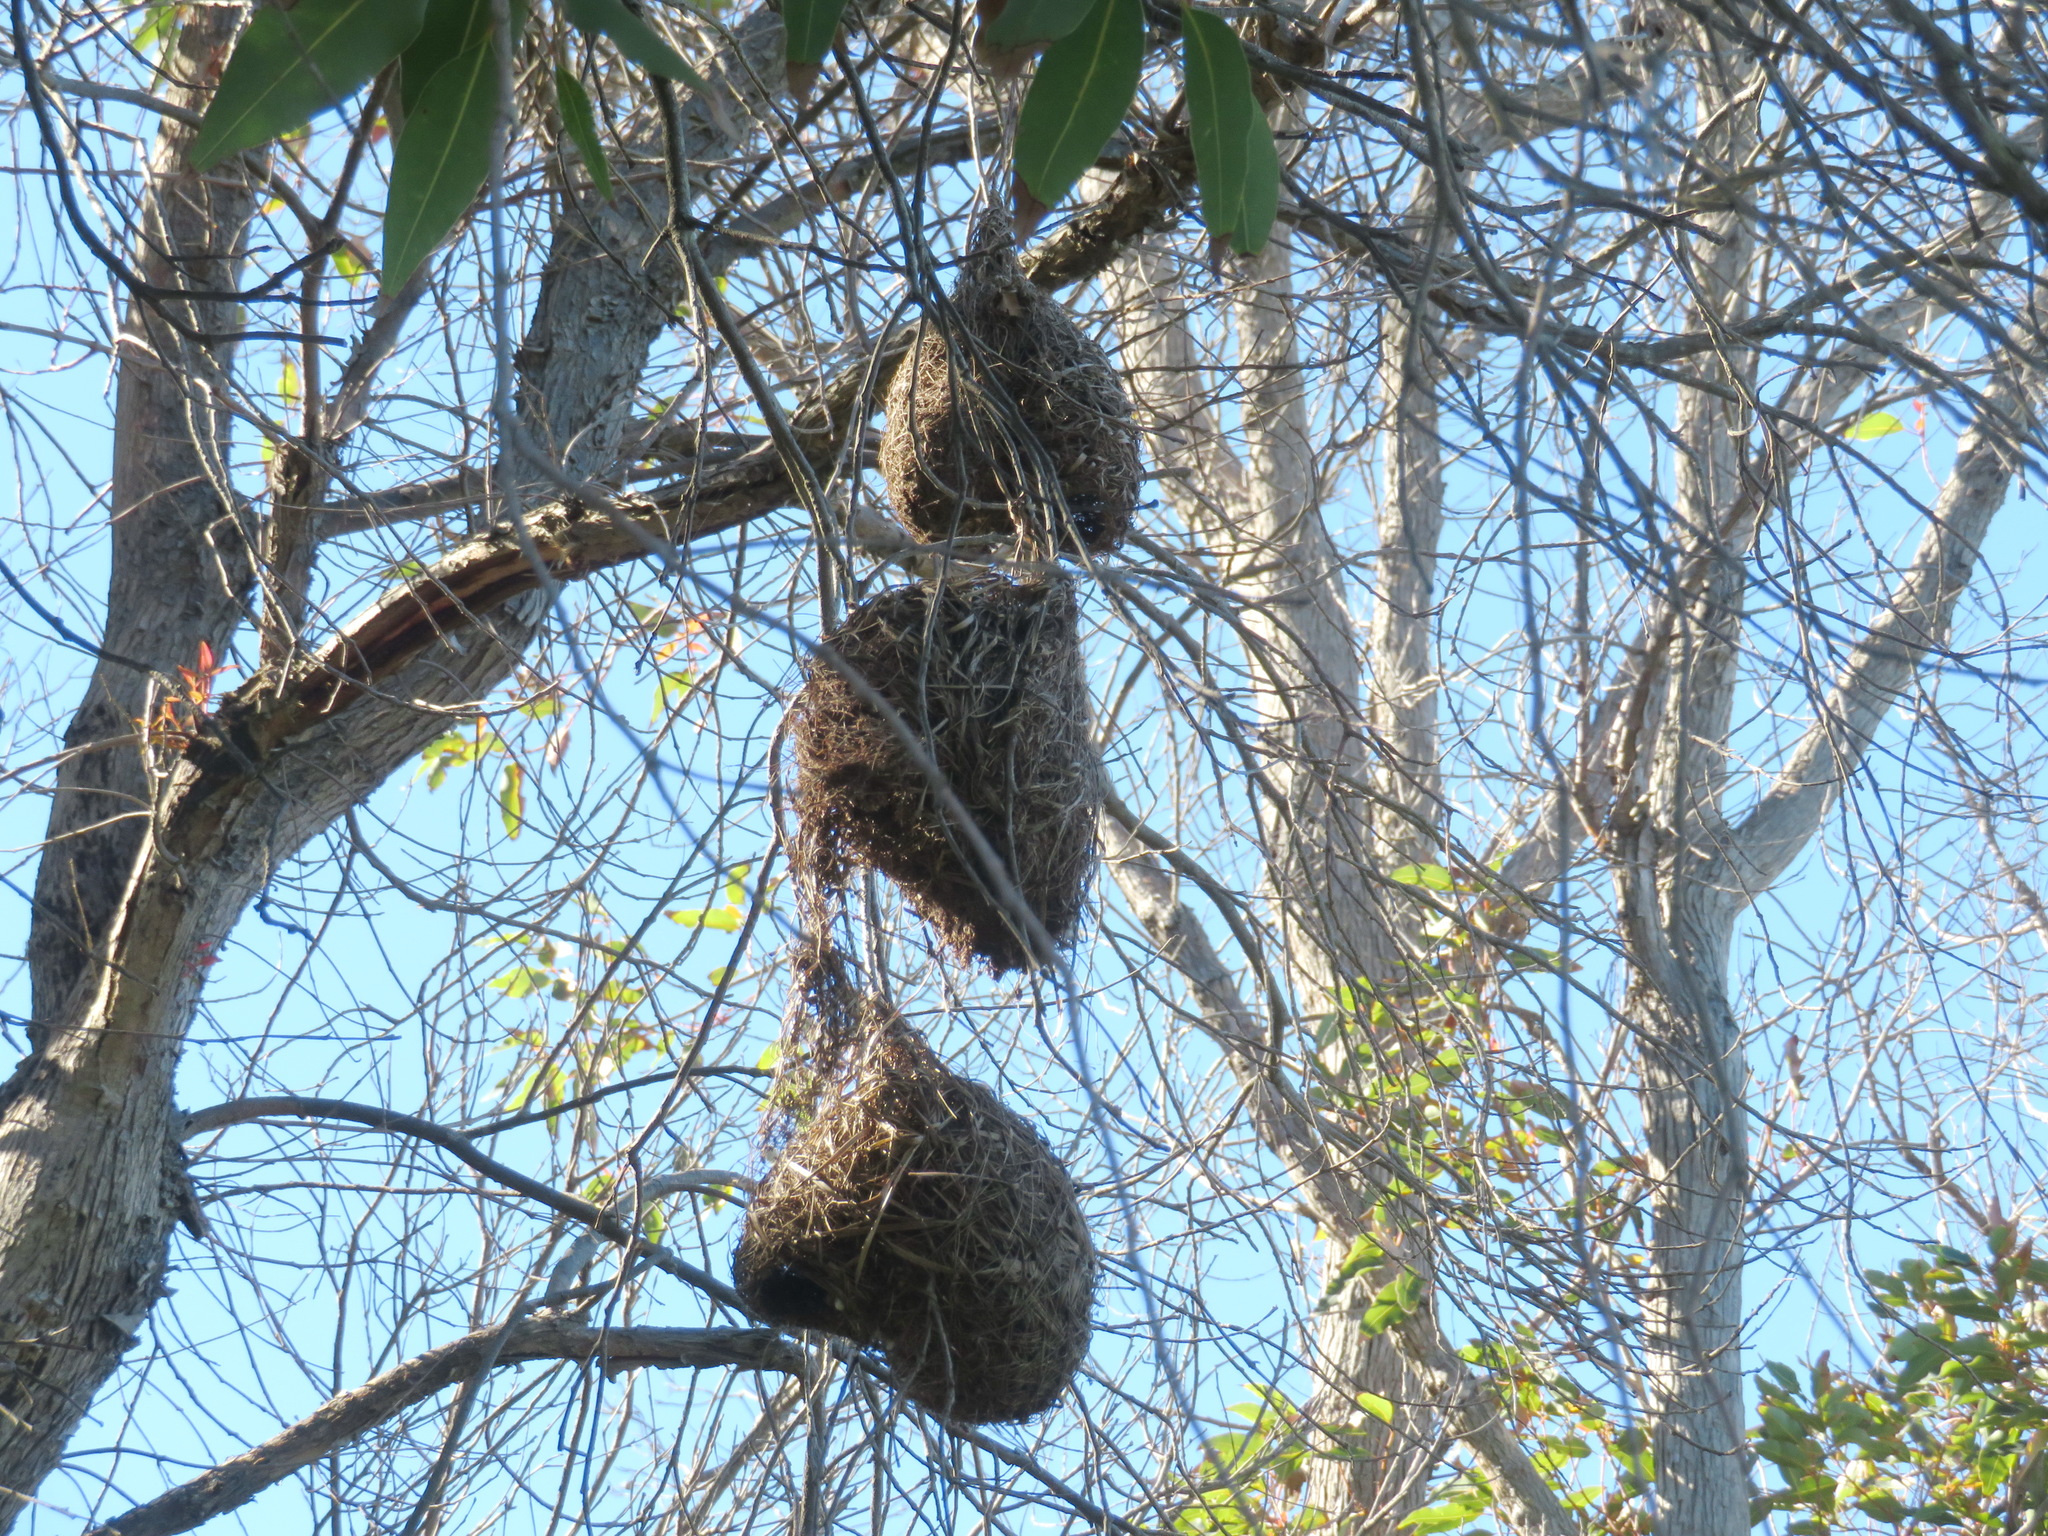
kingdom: Animalia
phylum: Chordata
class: Aves
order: Passeriformes
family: Ploceidae
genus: Ploceus
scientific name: Ploceus capensis
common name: Cape weaver
